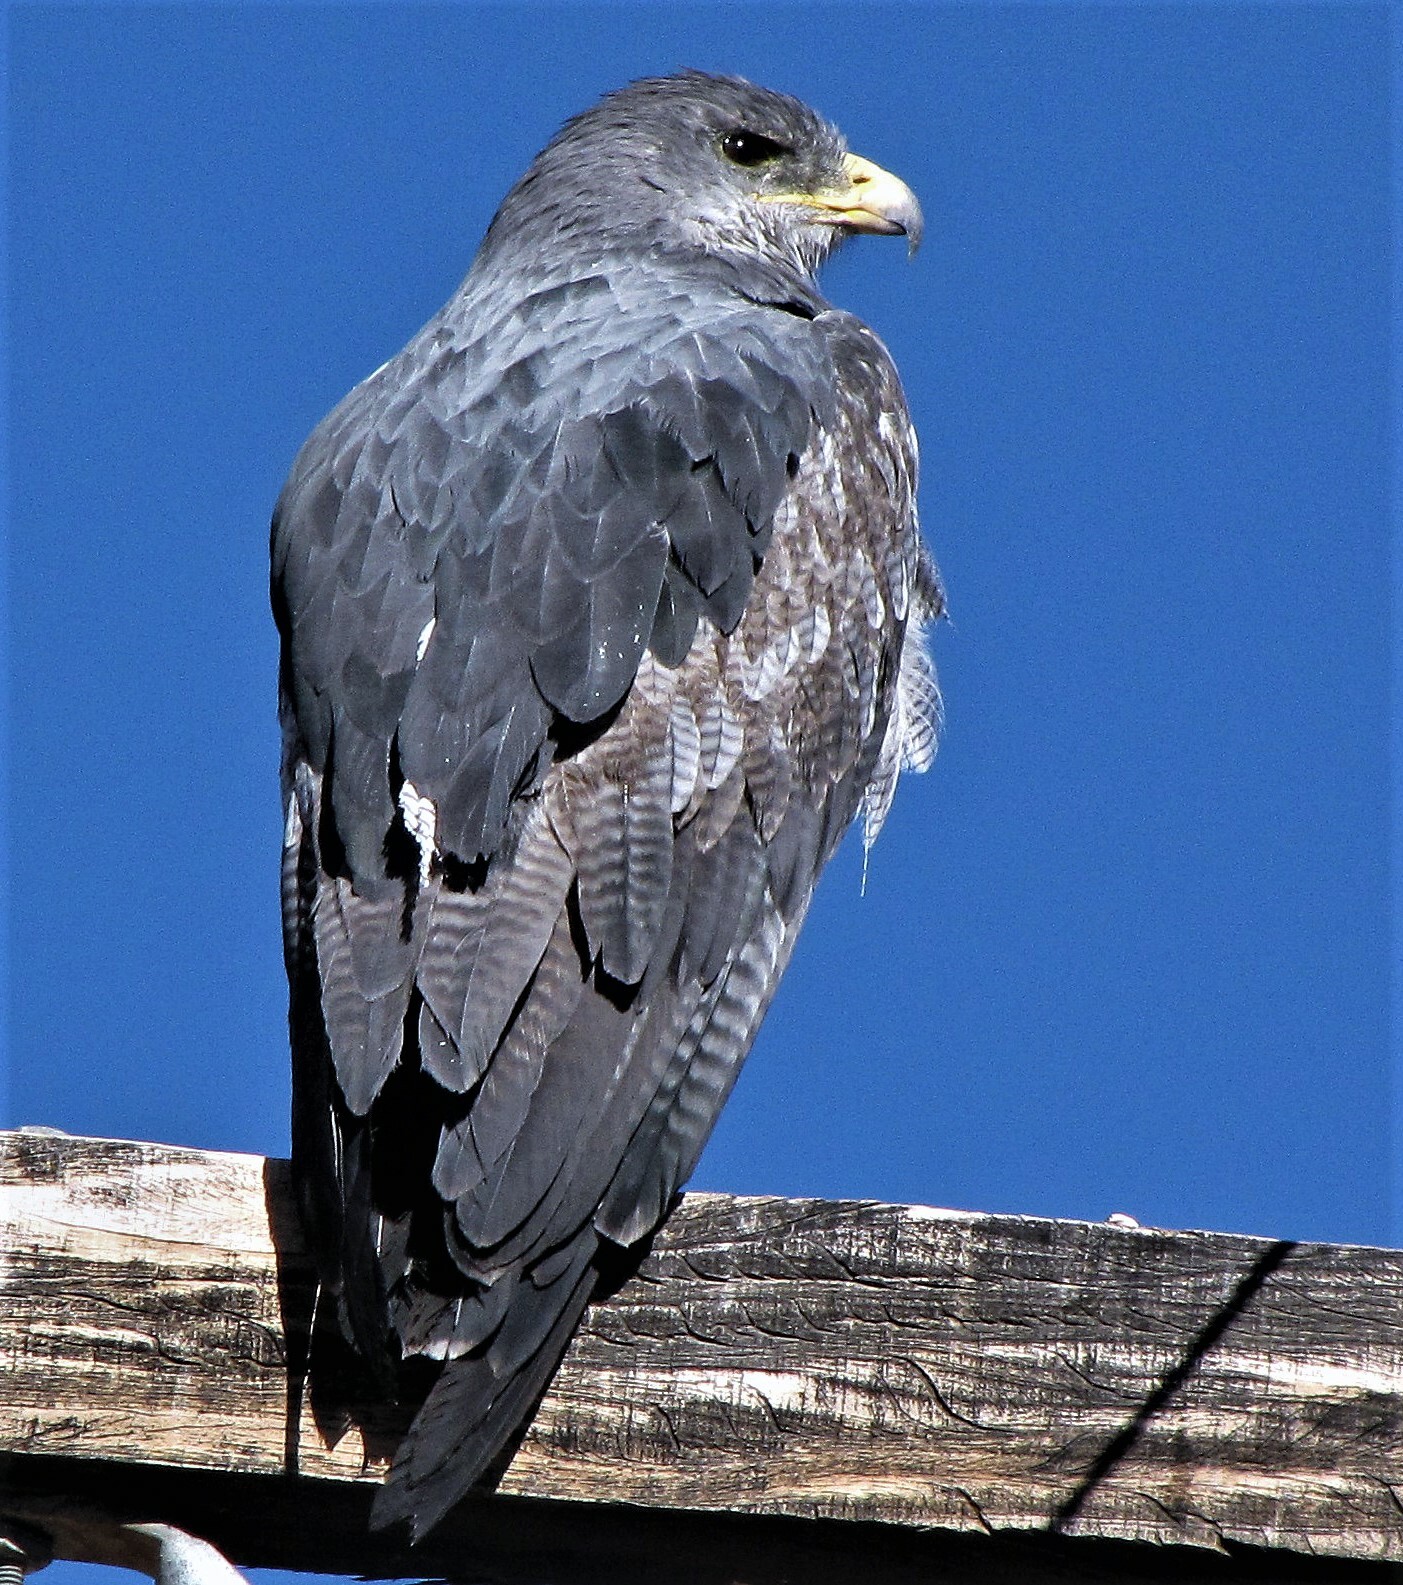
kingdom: Animalia
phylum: Chordata
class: Aves
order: Accipitriformes
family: Accipitridae
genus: Geranoaetus
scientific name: Geranoaetus melanoleucus
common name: Black-chested buzzard-eagle
